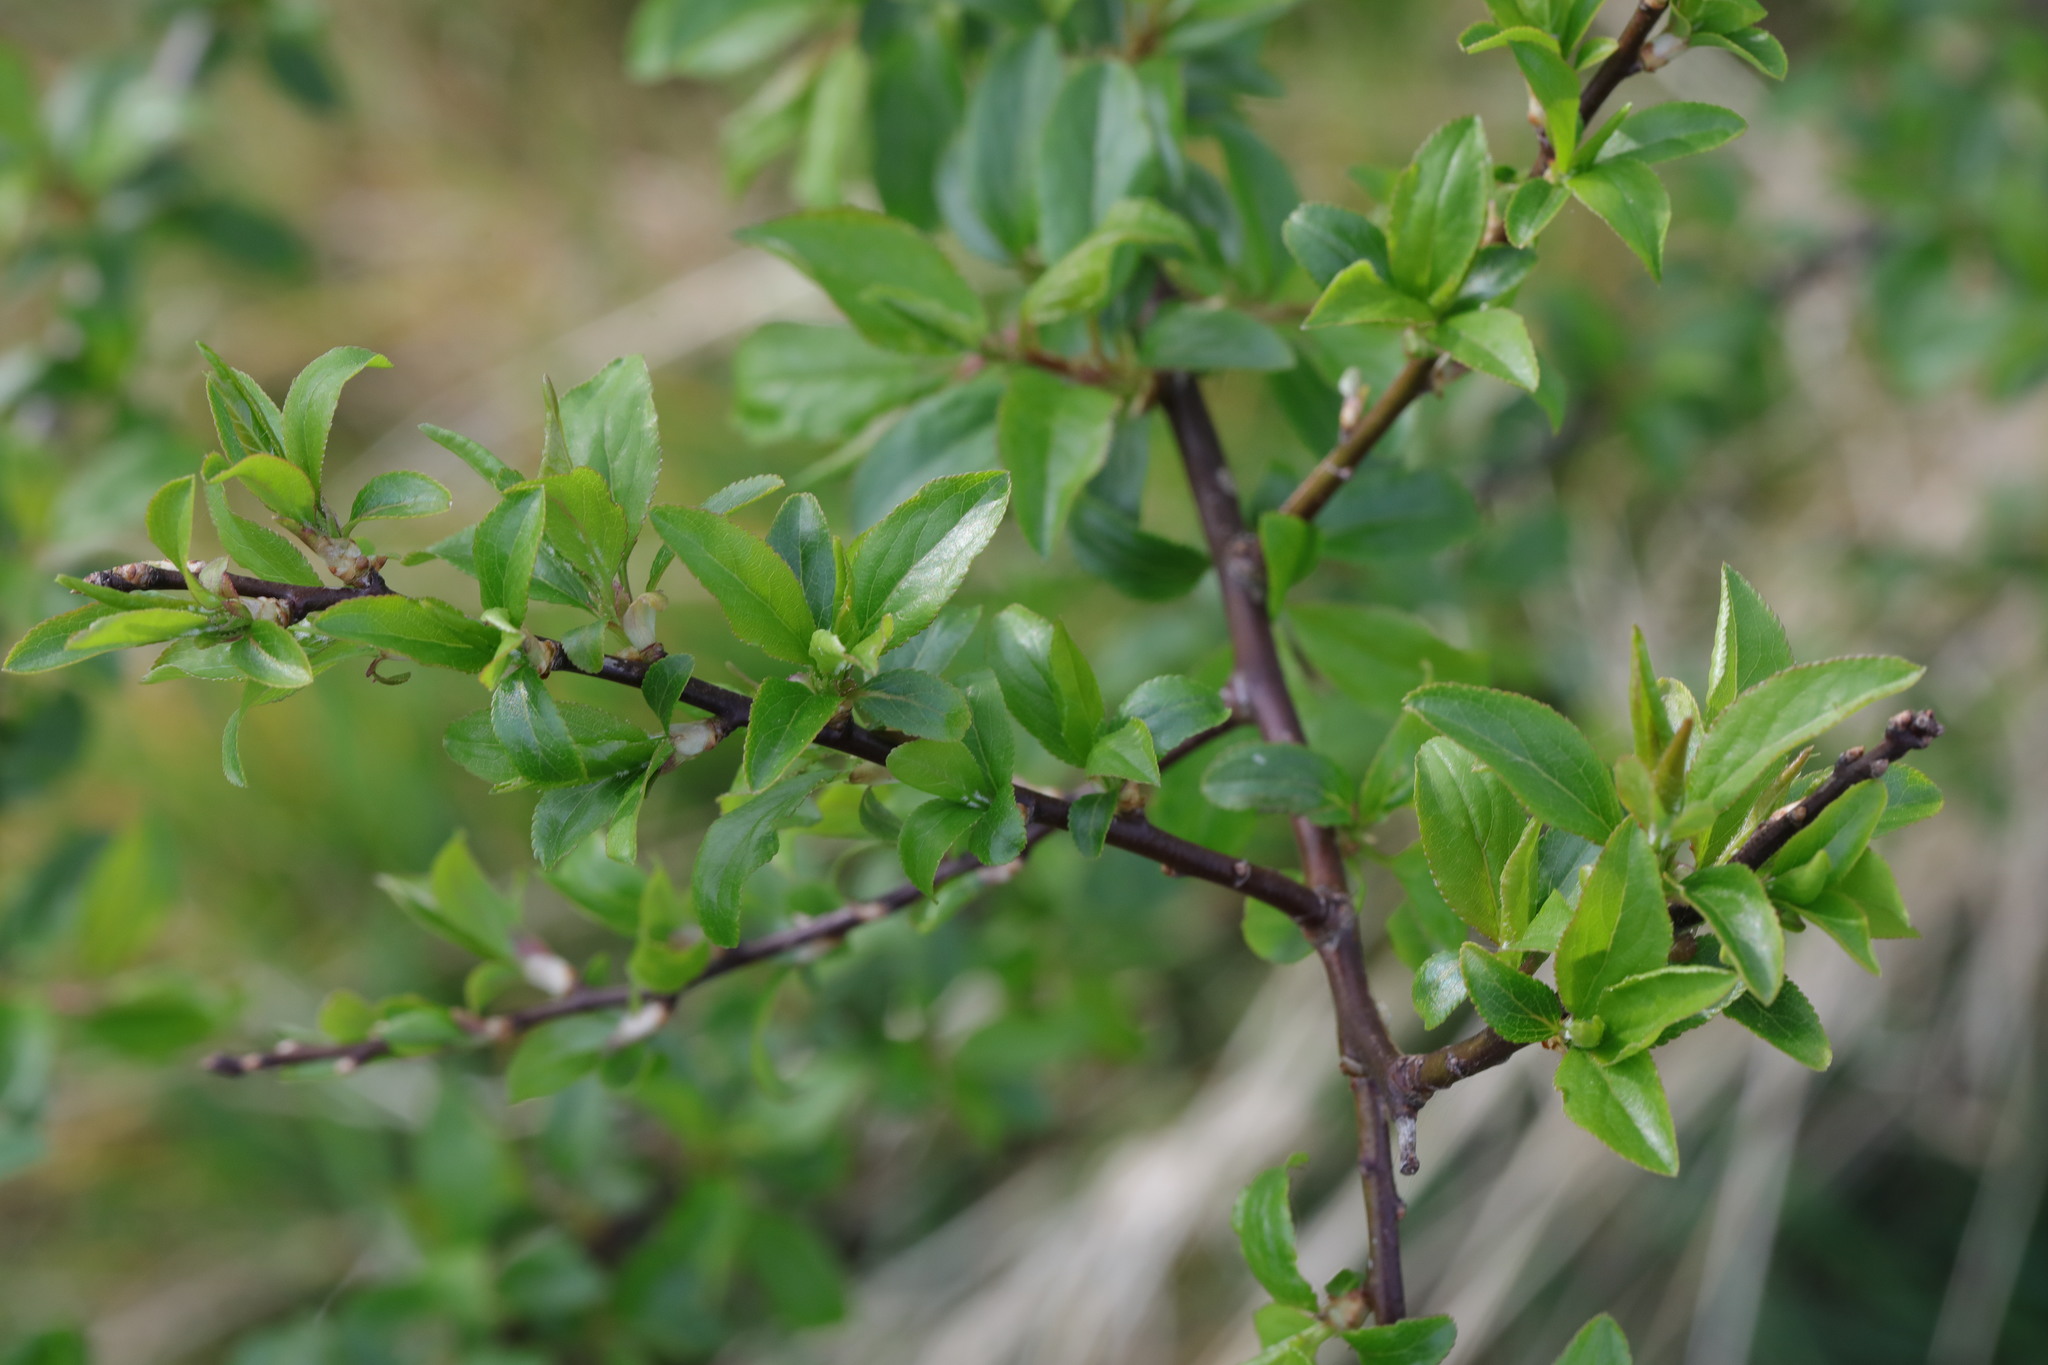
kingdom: Plantae
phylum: Tracheophyta
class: Magnoliopsida
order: Rosales
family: Rosaceae
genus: Prunus
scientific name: Prunus spinosa
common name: Blackthorn
